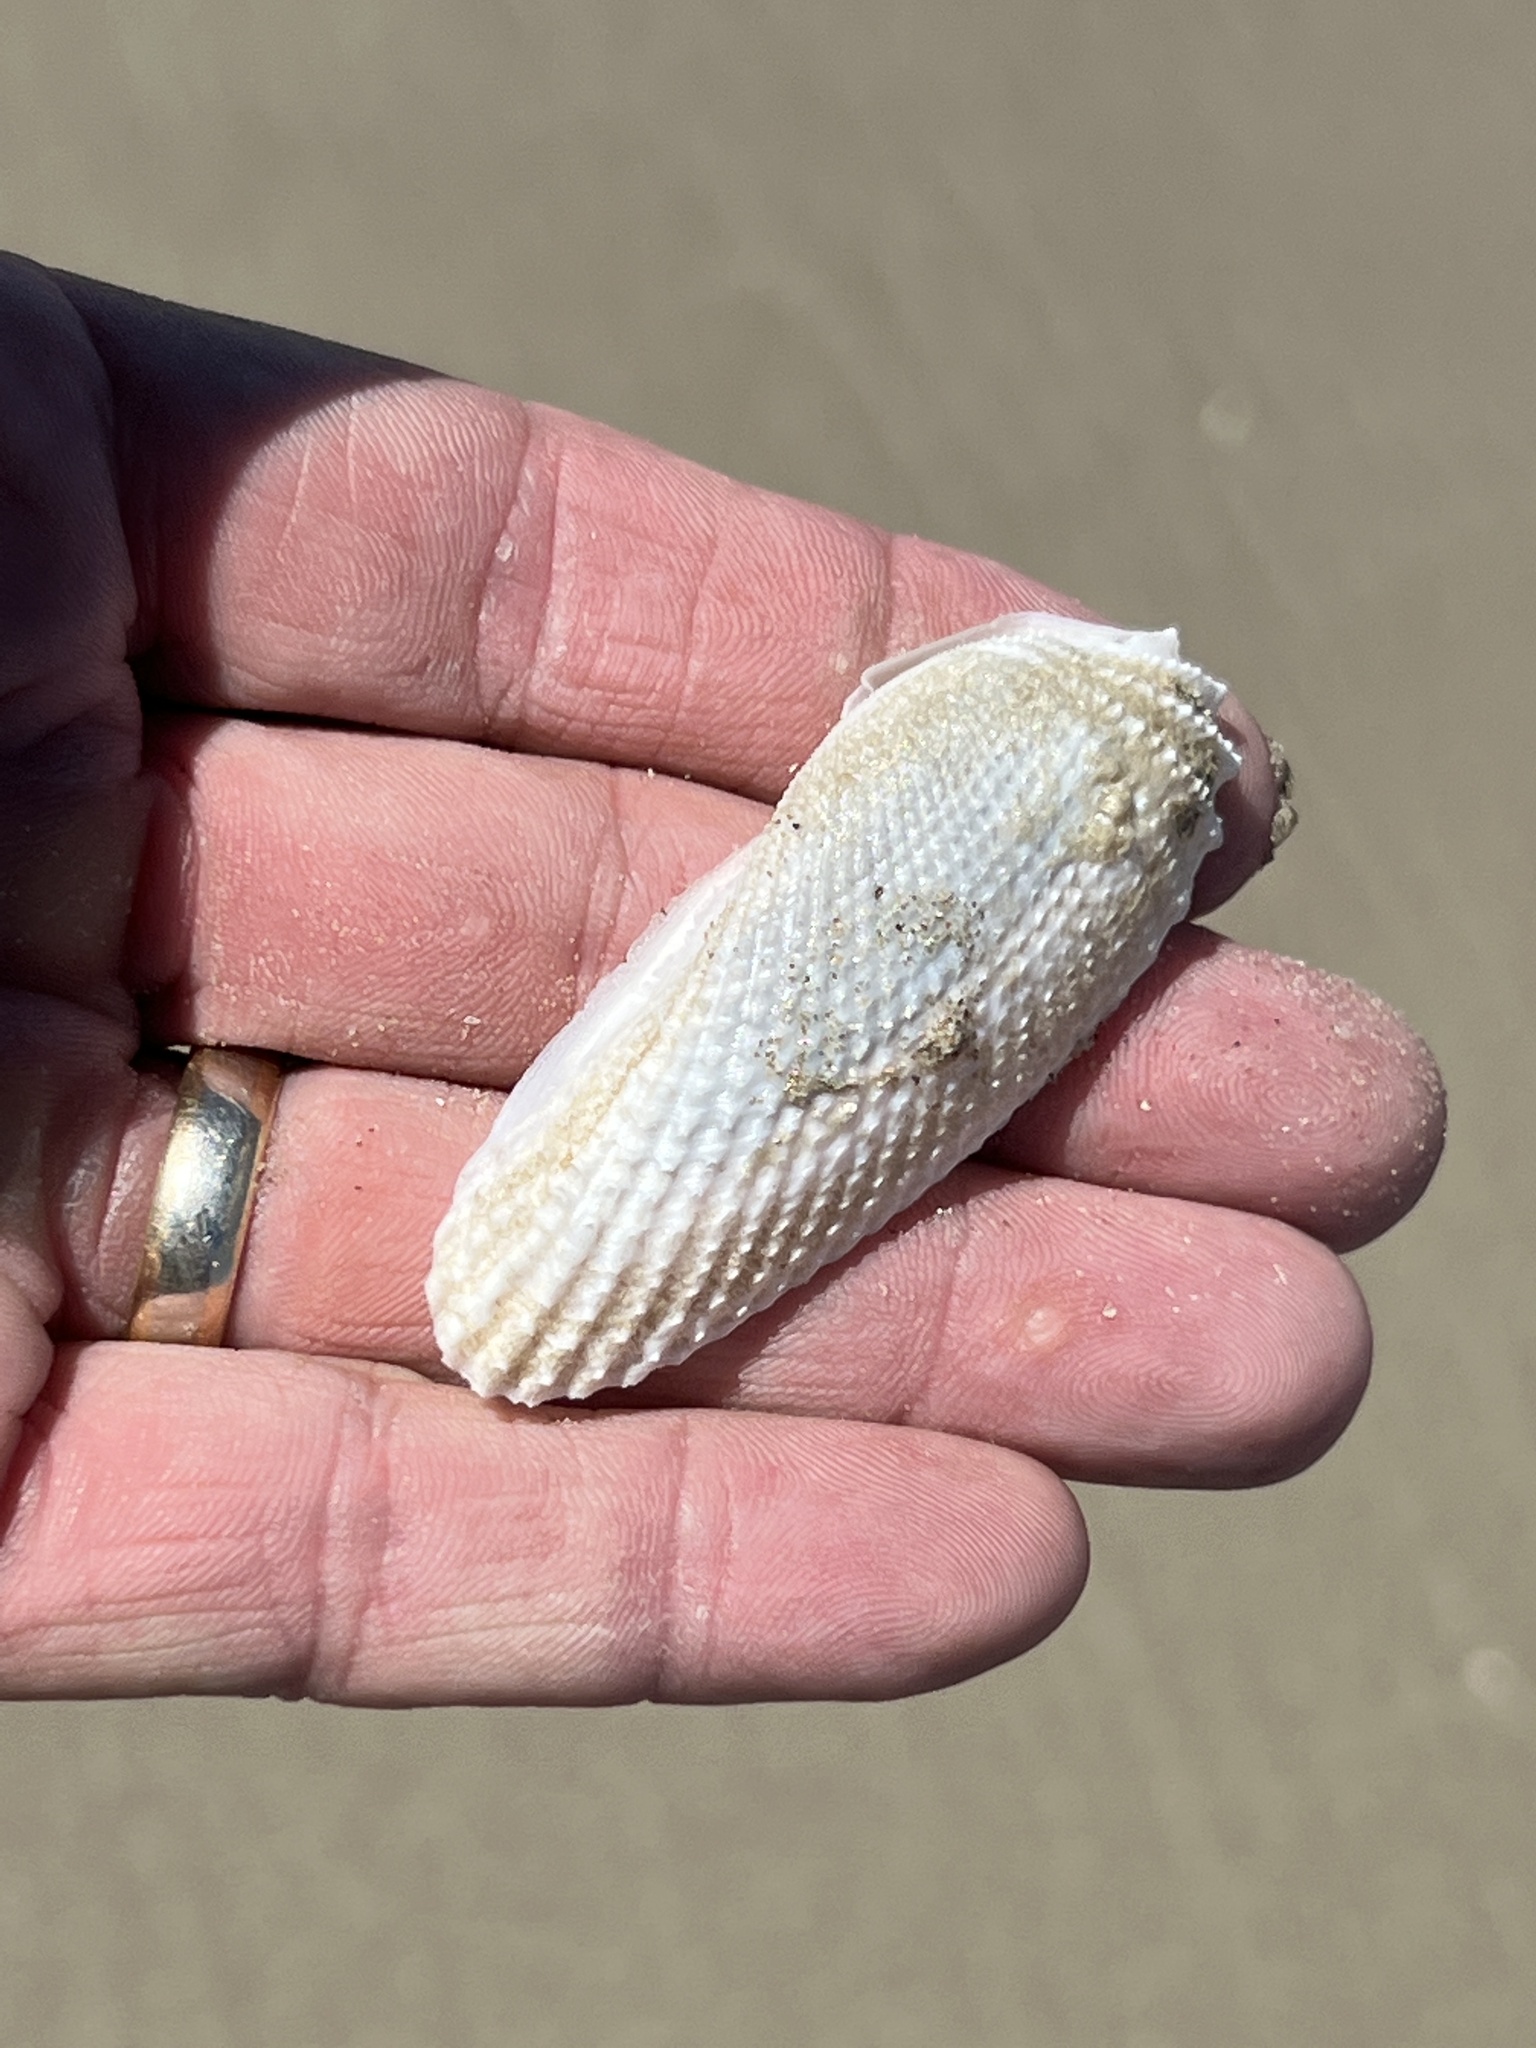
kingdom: Animalia
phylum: Mollusca
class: Bivalvia
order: Myida
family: Pholadidae
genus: Cyrtopleura
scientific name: Cyrtopleura costata
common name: Angel wing
